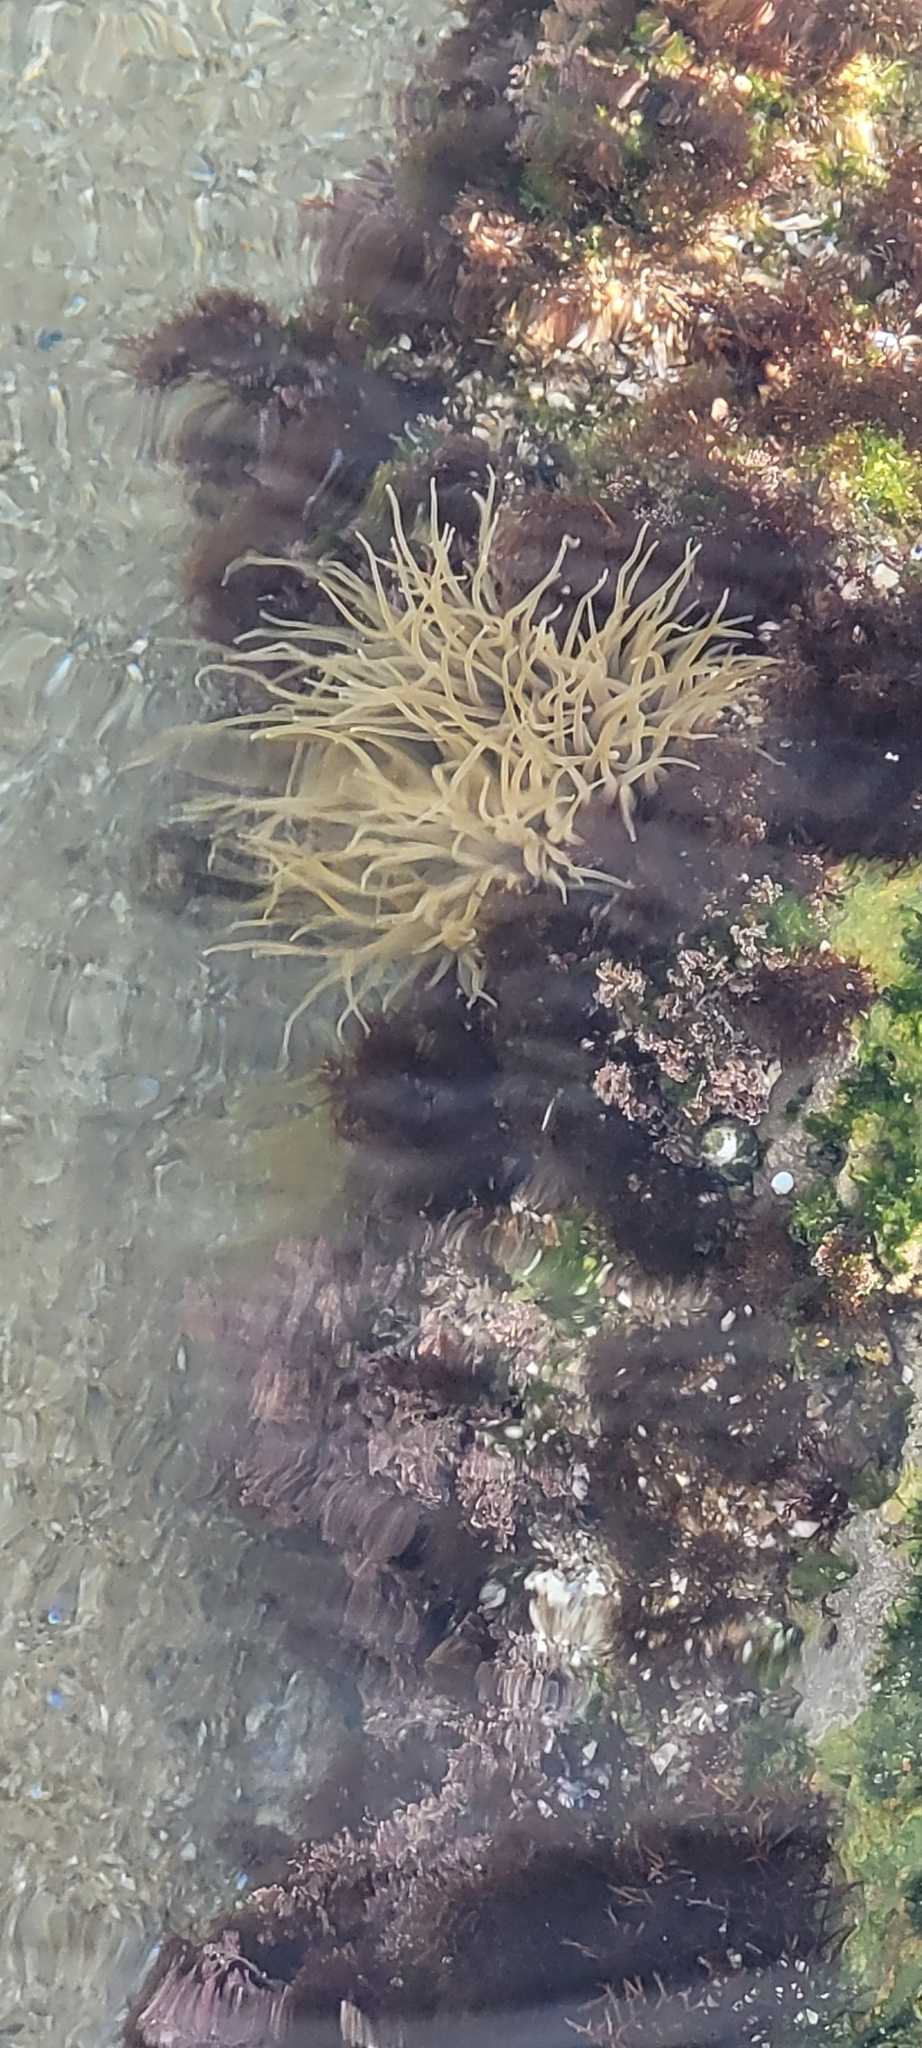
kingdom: Animalia
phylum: Cnidaria
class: Anthozoa
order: Actiniaria
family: Actiniidae
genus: Anemonia
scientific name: Anemonia viridis
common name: Snakelocks anemone
